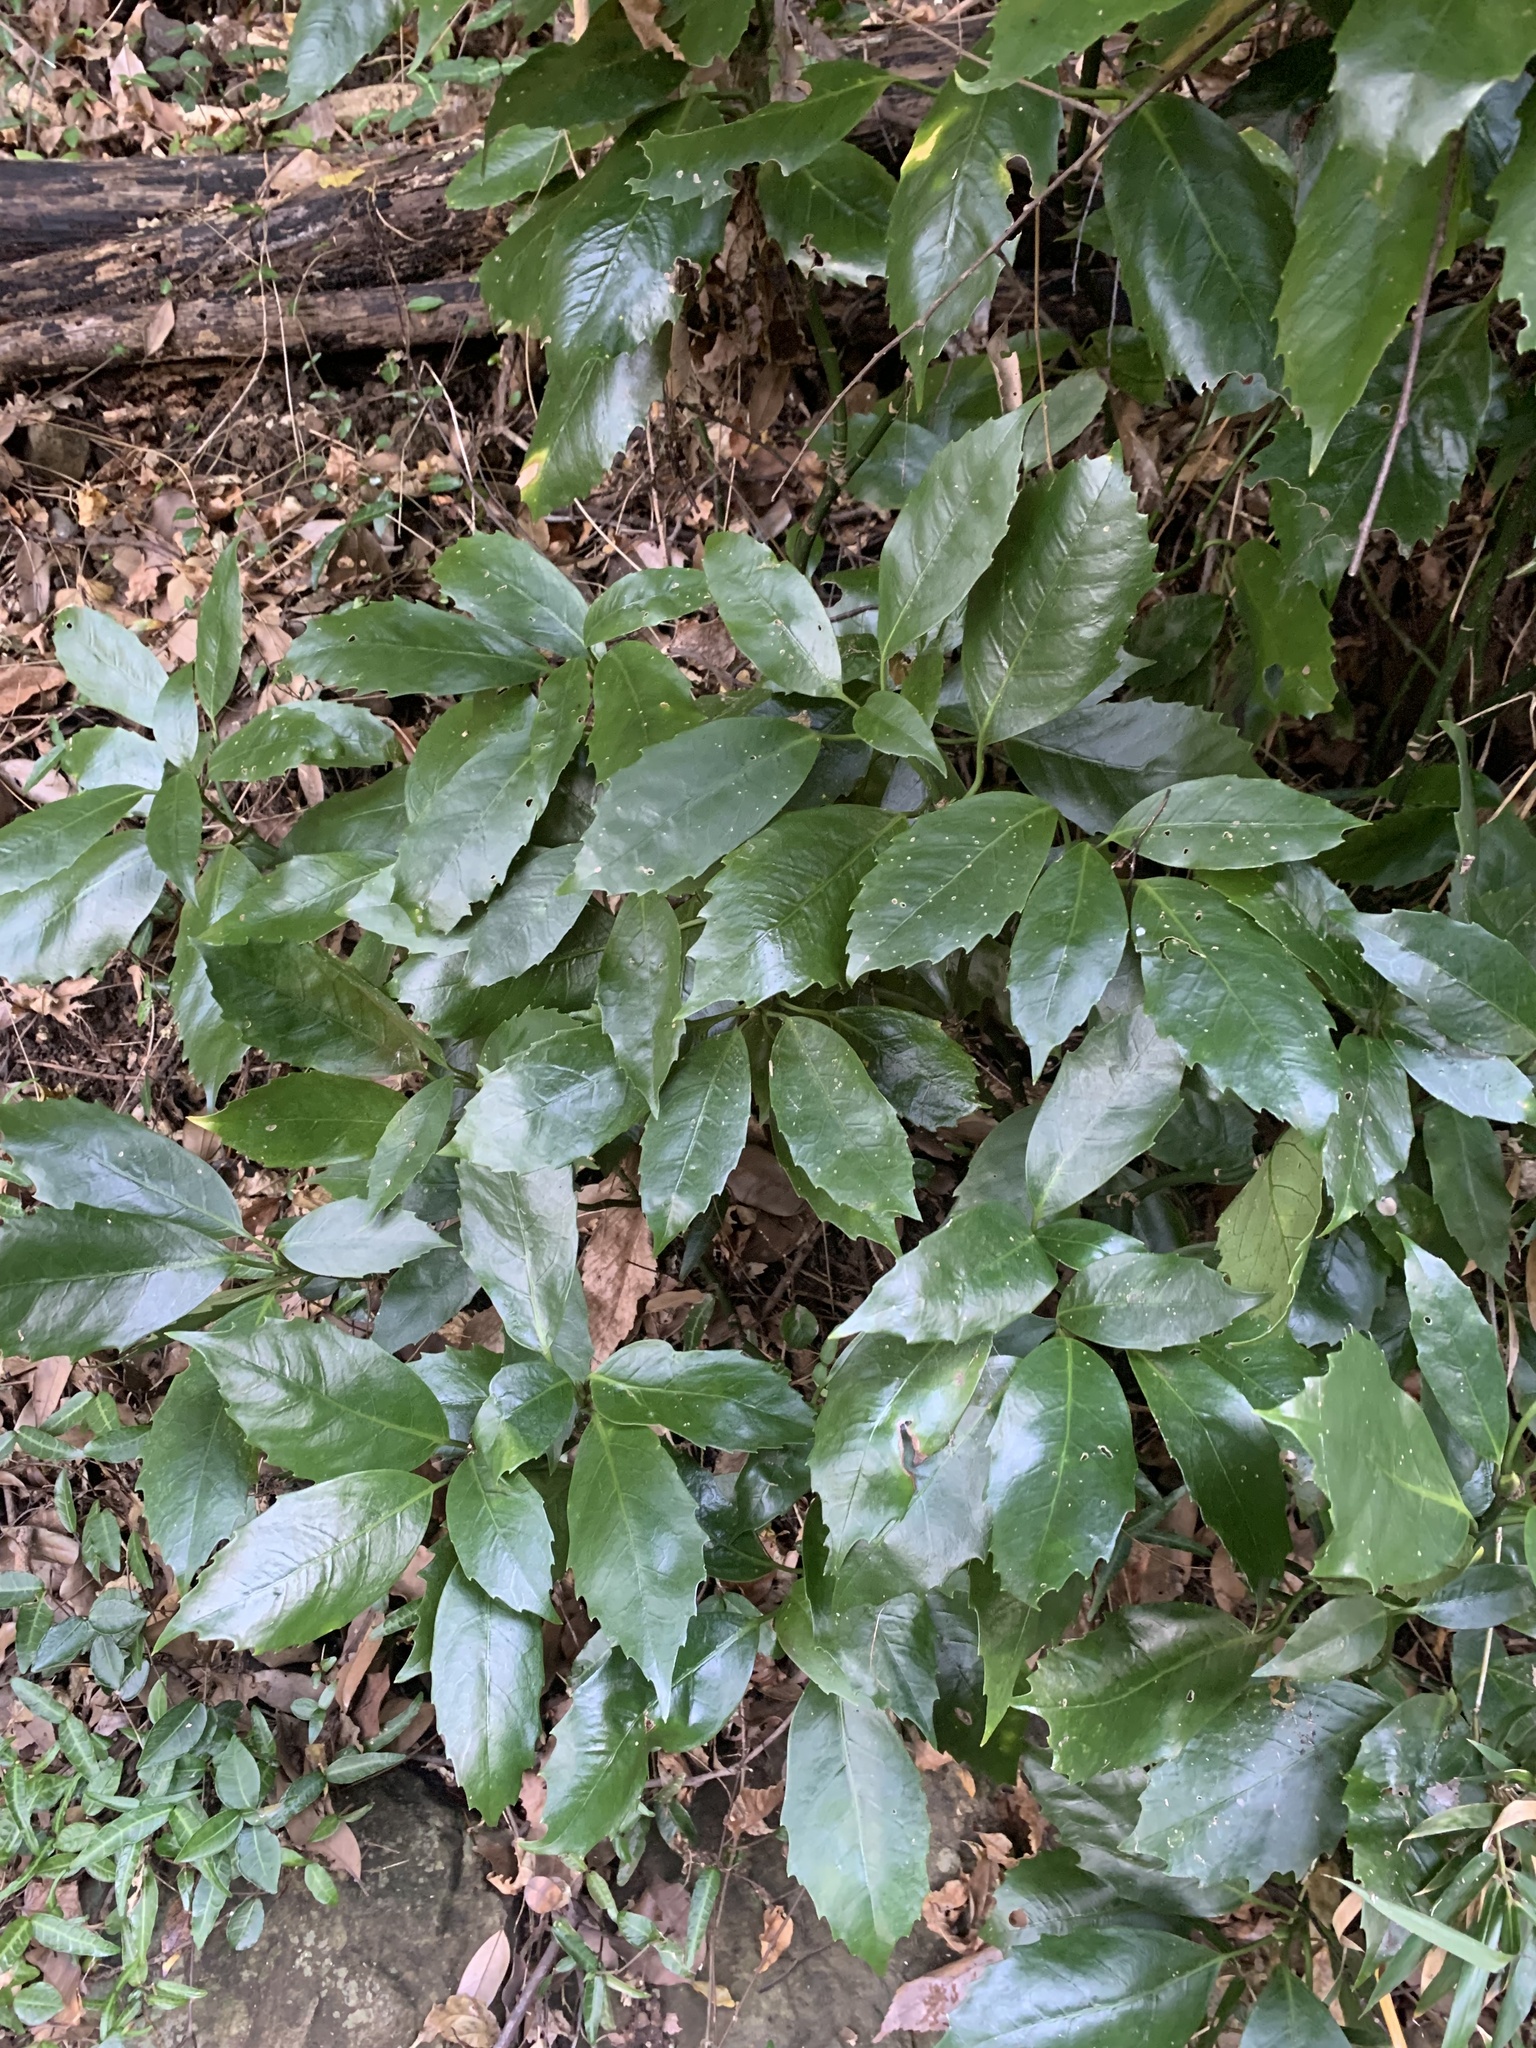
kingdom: Plantae
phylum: Tracheophyta
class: Magnoliopsida
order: Garryales
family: Garryaceae
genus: Aucuba
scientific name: Aucuba japonica
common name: Spotted-laurel
